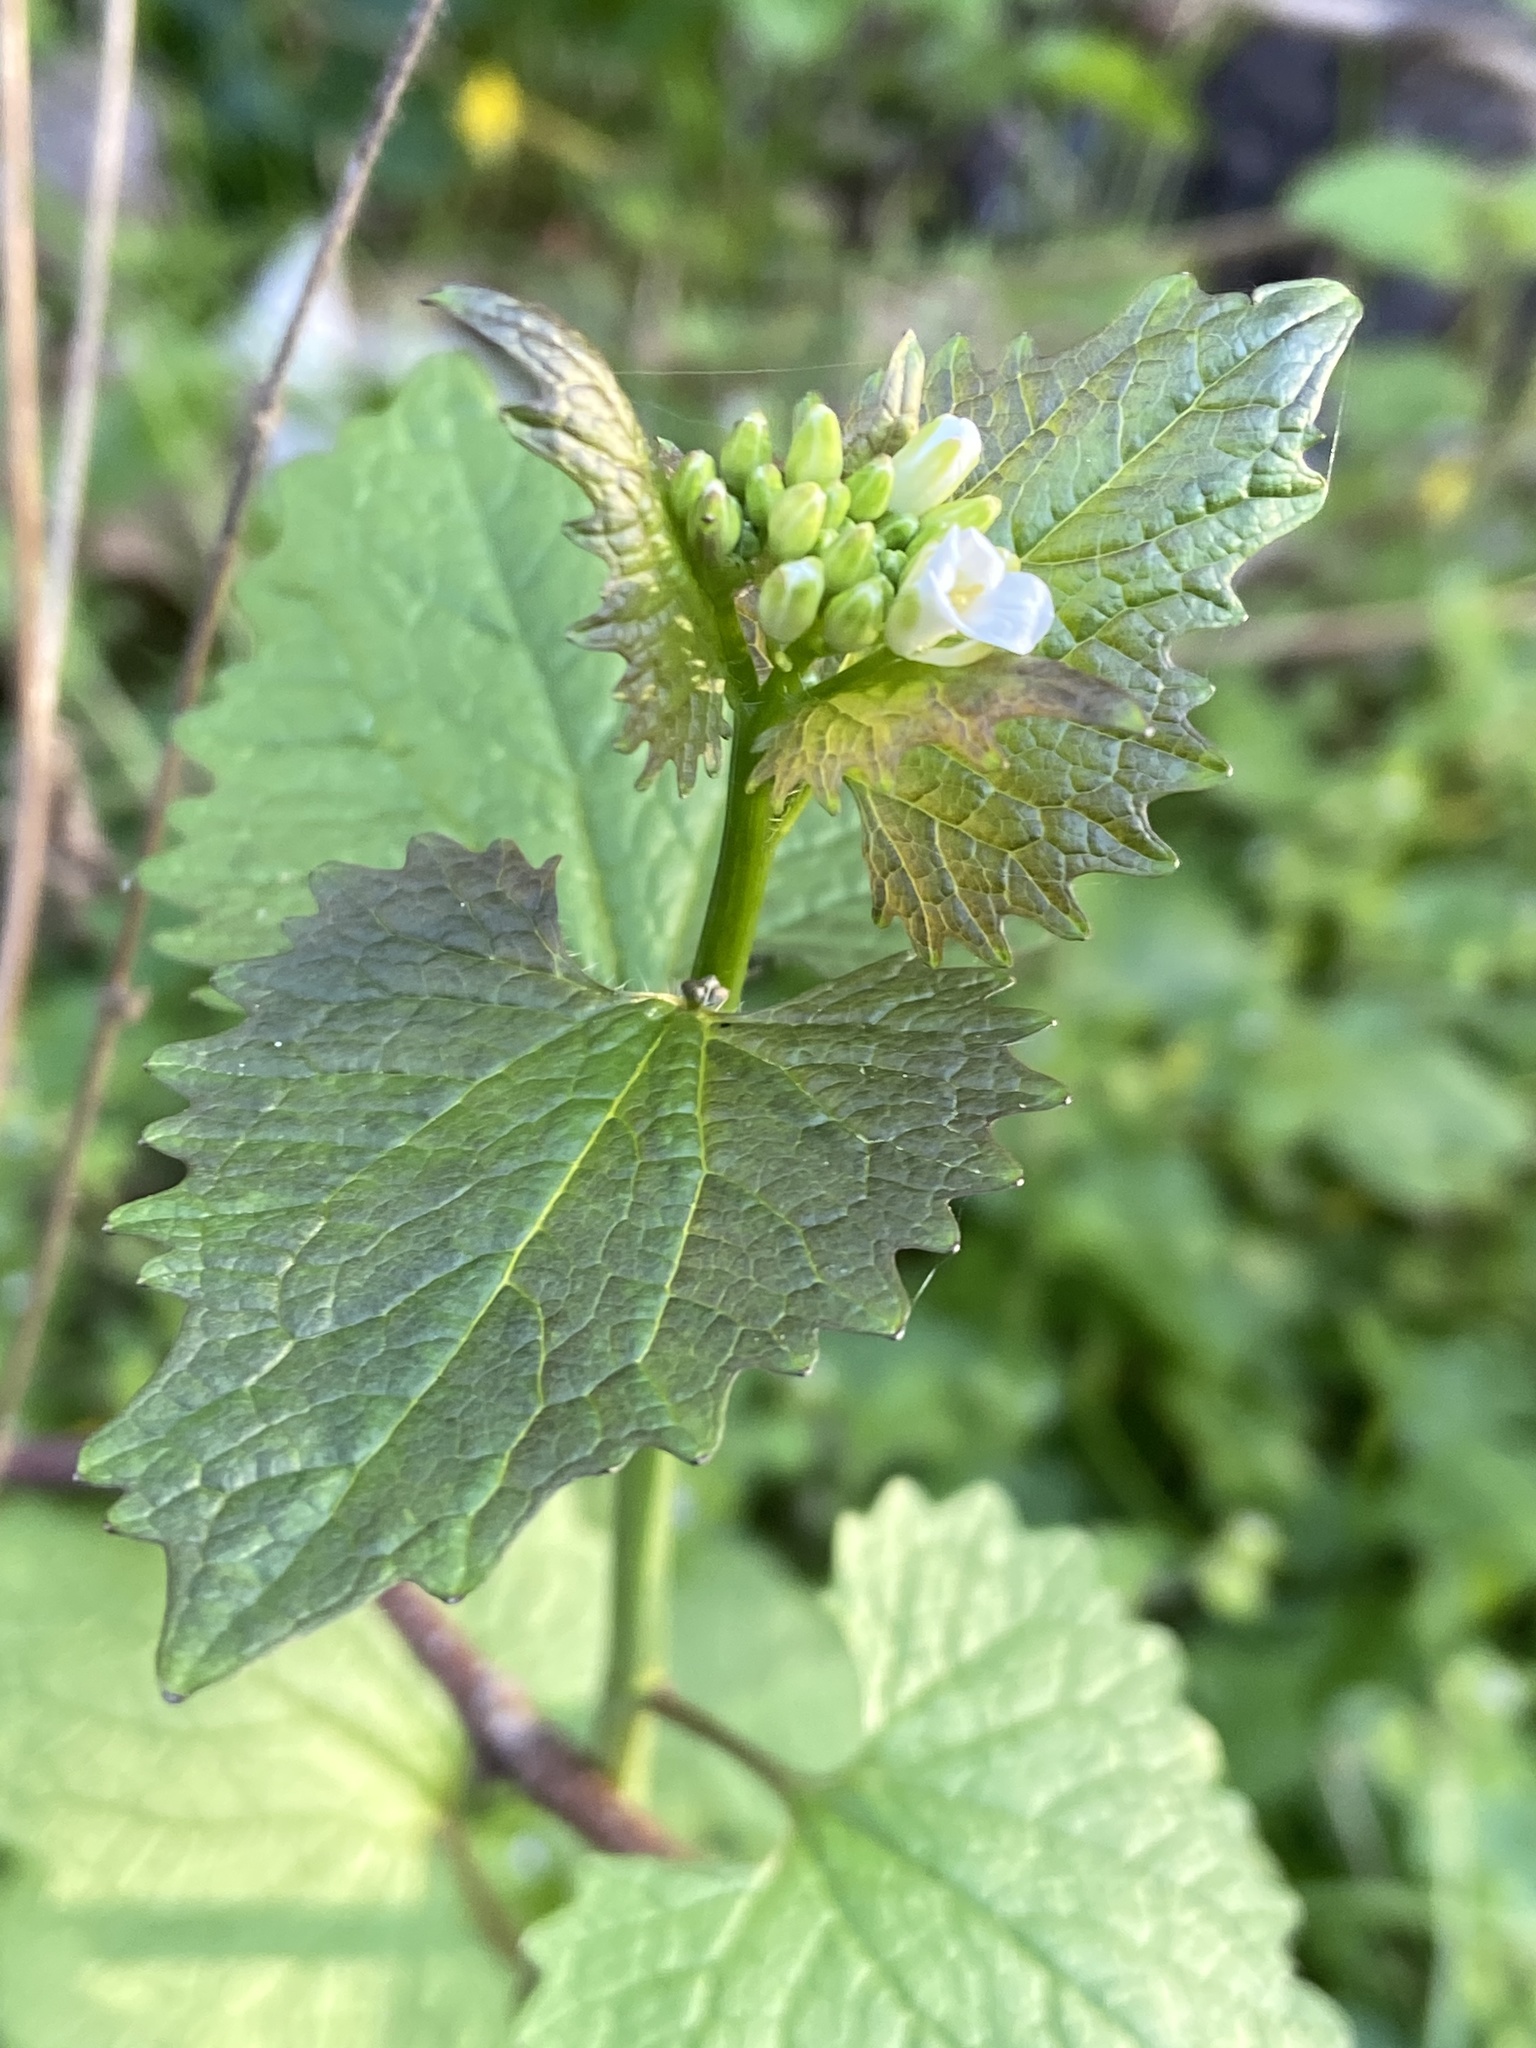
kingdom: Plantae
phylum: Tracheophyta
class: Magnoliopsida
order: Brassicales
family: Brassicaceae
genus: Alliaria
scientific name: Alliaria petiolata
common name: Garlic mustard
